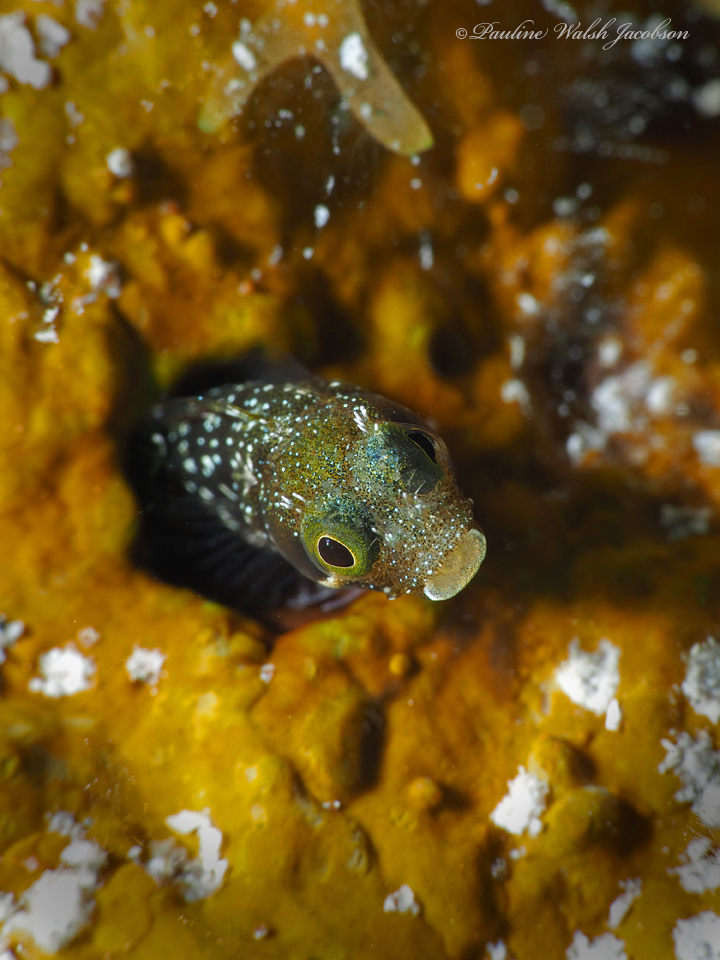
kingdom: Animalia
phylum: Chordata
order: Perciformes
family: Chaenopsidae
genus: Acanthemblemaria
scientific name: Acanthemblemaria spinosa
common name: Spinyhead blenny
